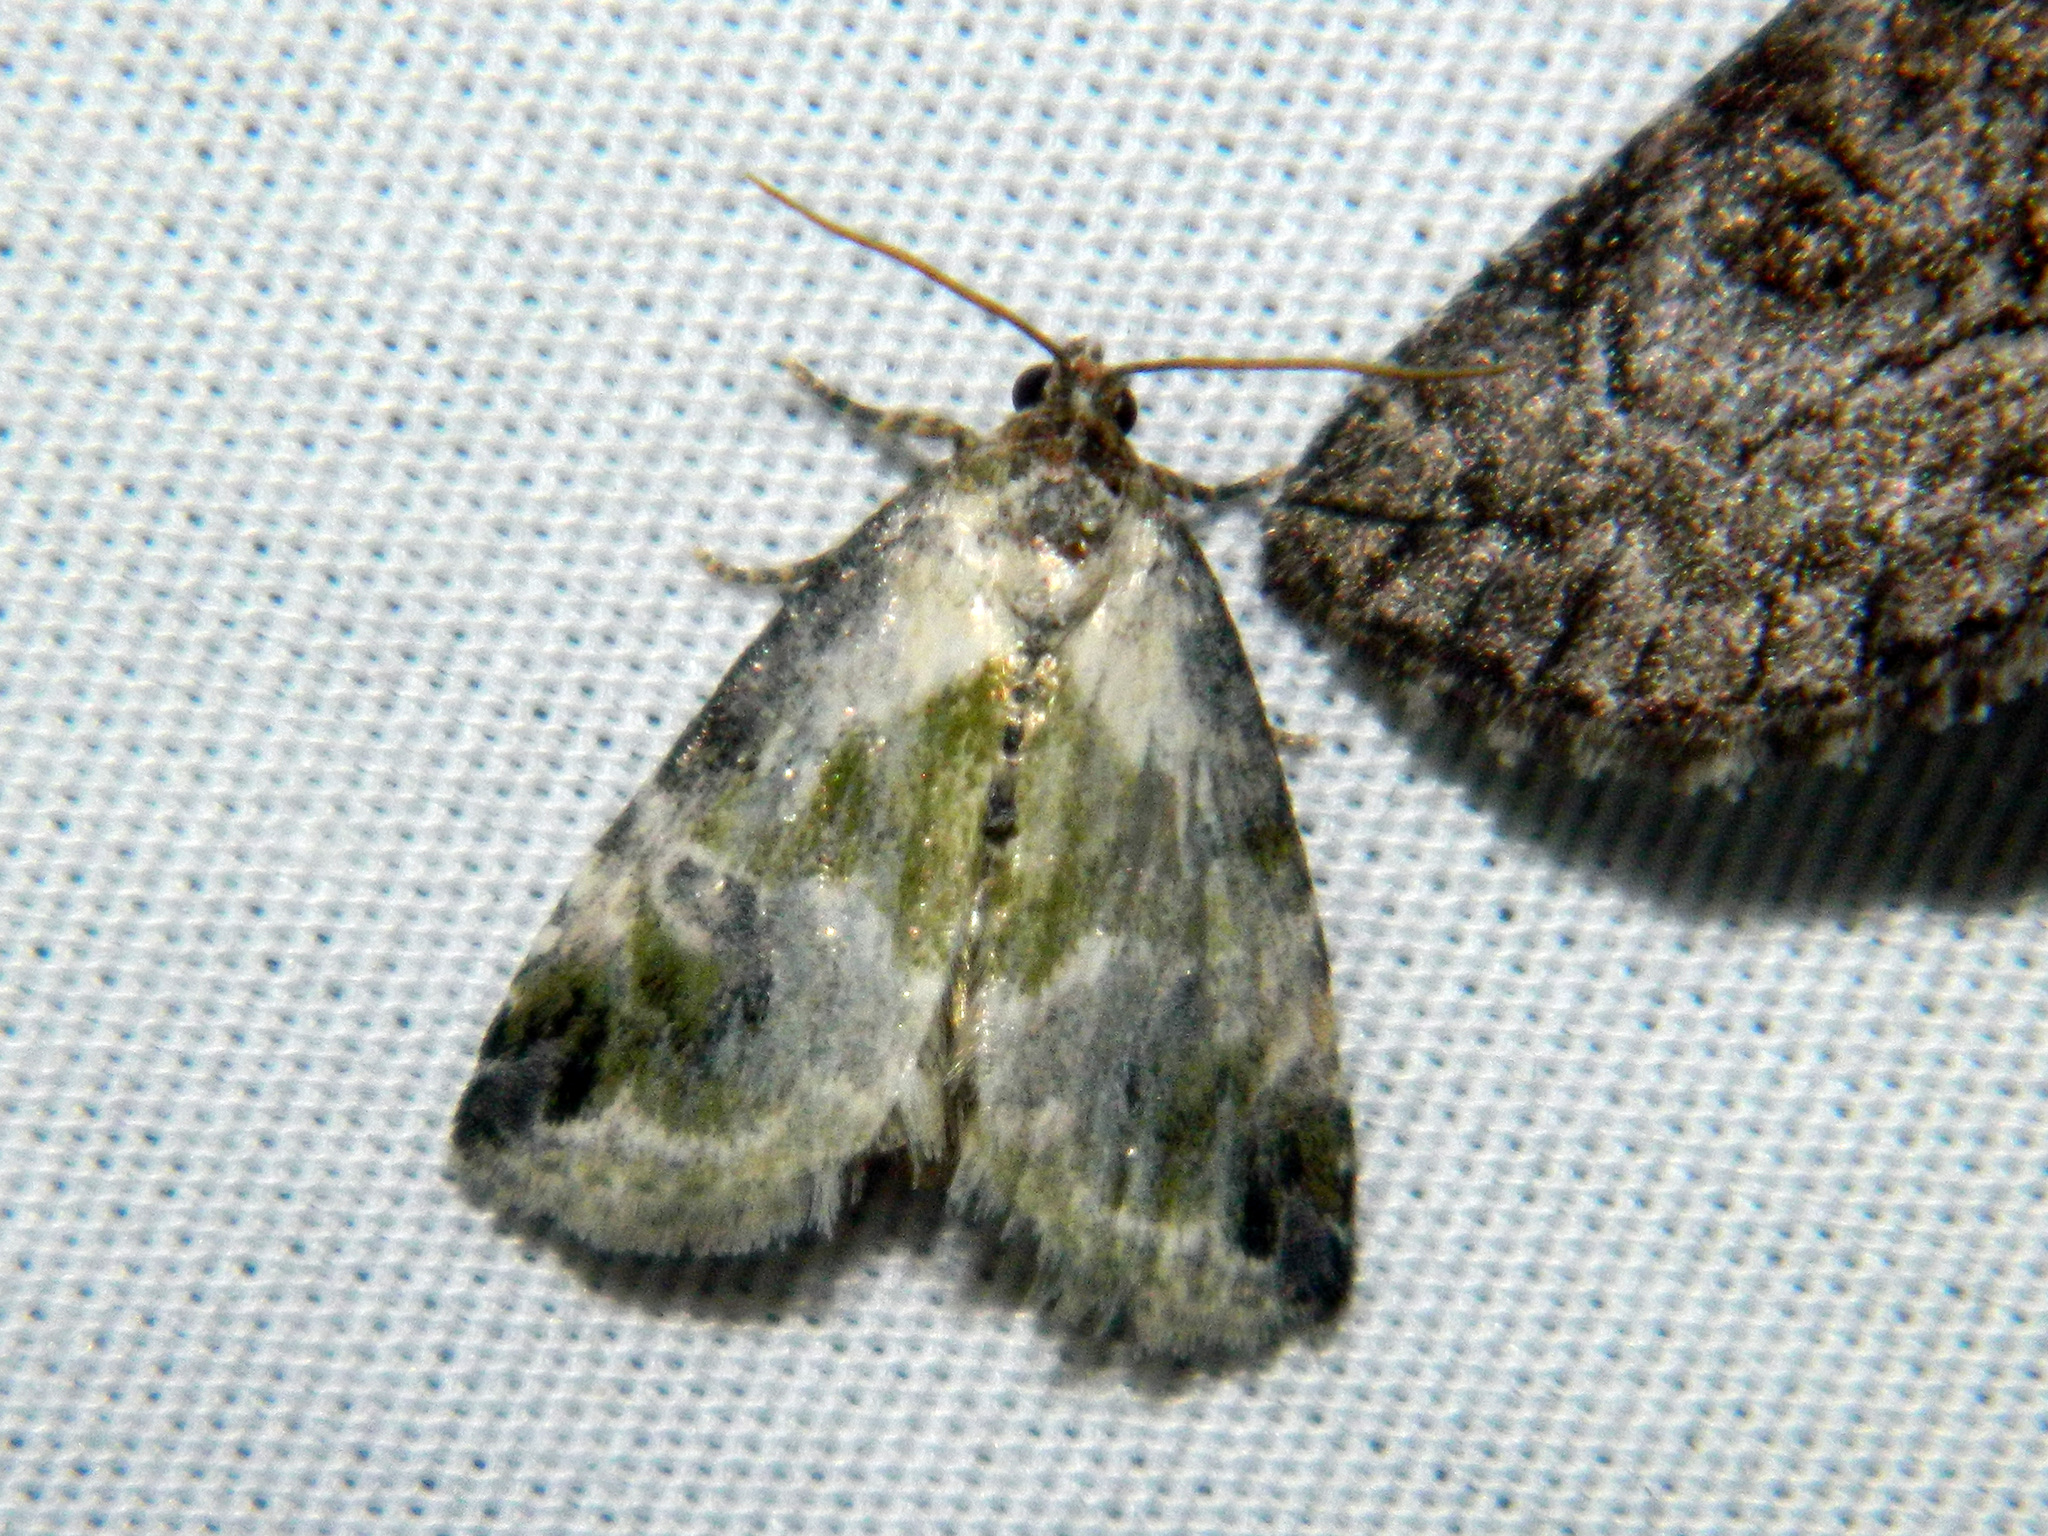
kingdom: Animalia
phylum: Arthropoda
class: Insecta
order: Lepidoptera
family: Noctuidae
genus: Maliattha
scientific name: Maliattha synochitis
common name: Black-dotted glyph
